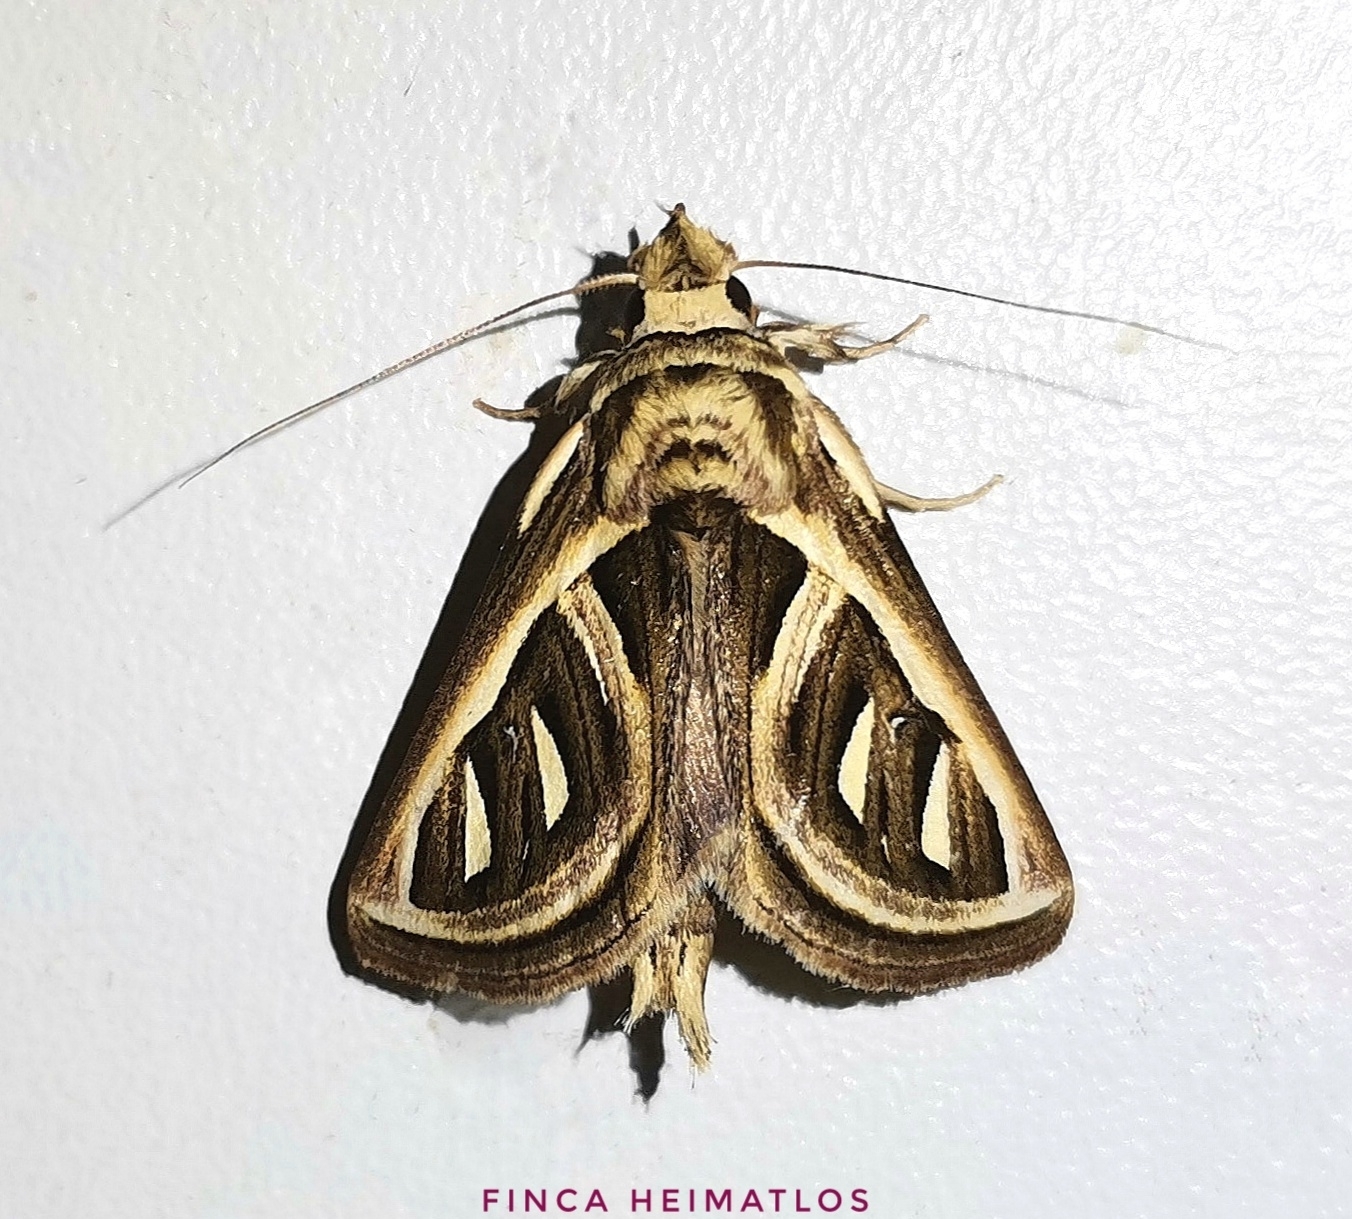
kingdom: Animalia
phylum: Arthropoda
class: Insecta
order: Lepidoptera
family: Notodontidae
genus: Ankale
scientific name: Ankale
